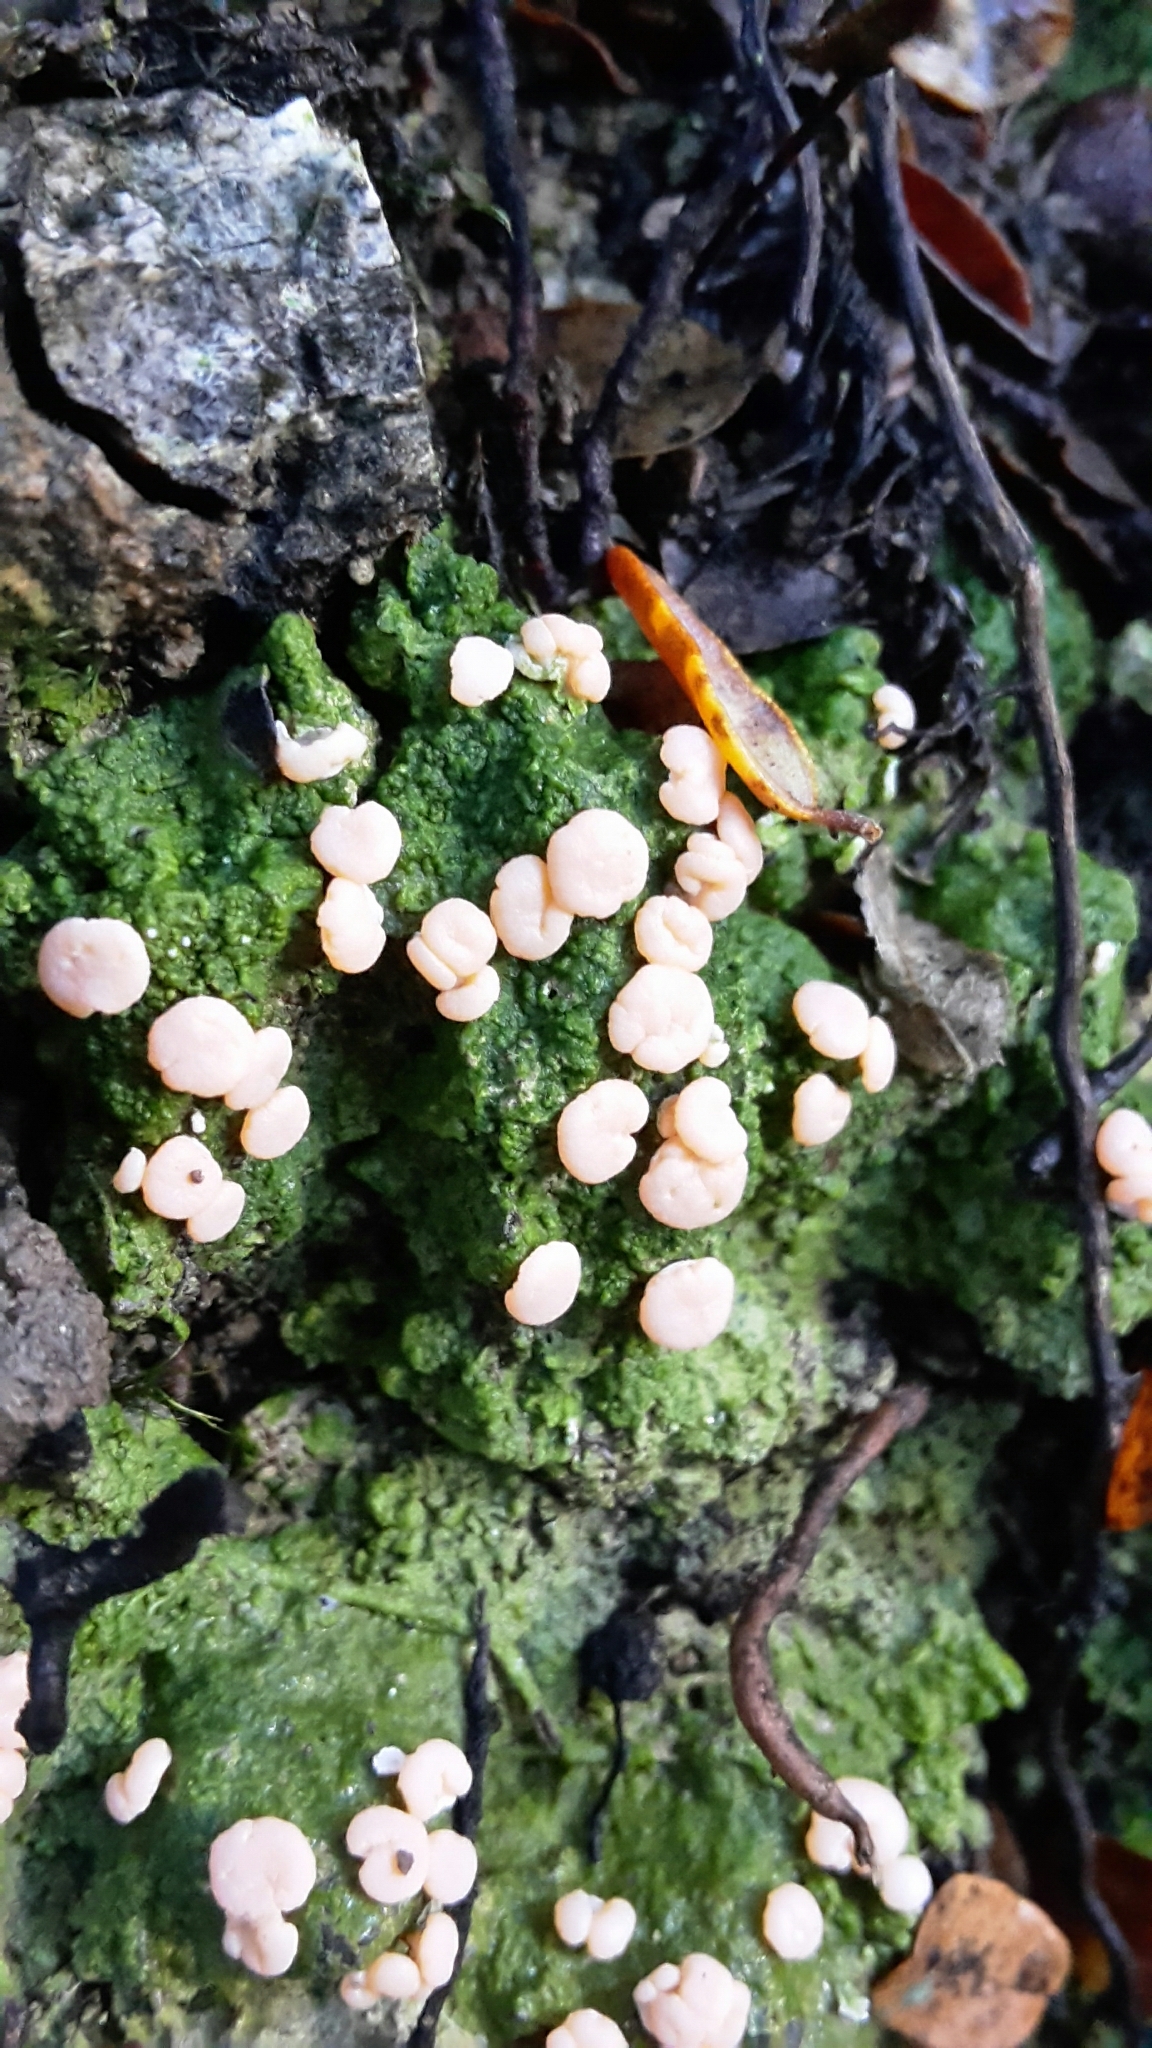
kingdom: Fungi
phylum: Ascomycota
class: Lecanoromycetes
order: Pertusariales
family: Icmadophilaceae
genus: Dibaeis
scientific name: Dibaeis absoluta
